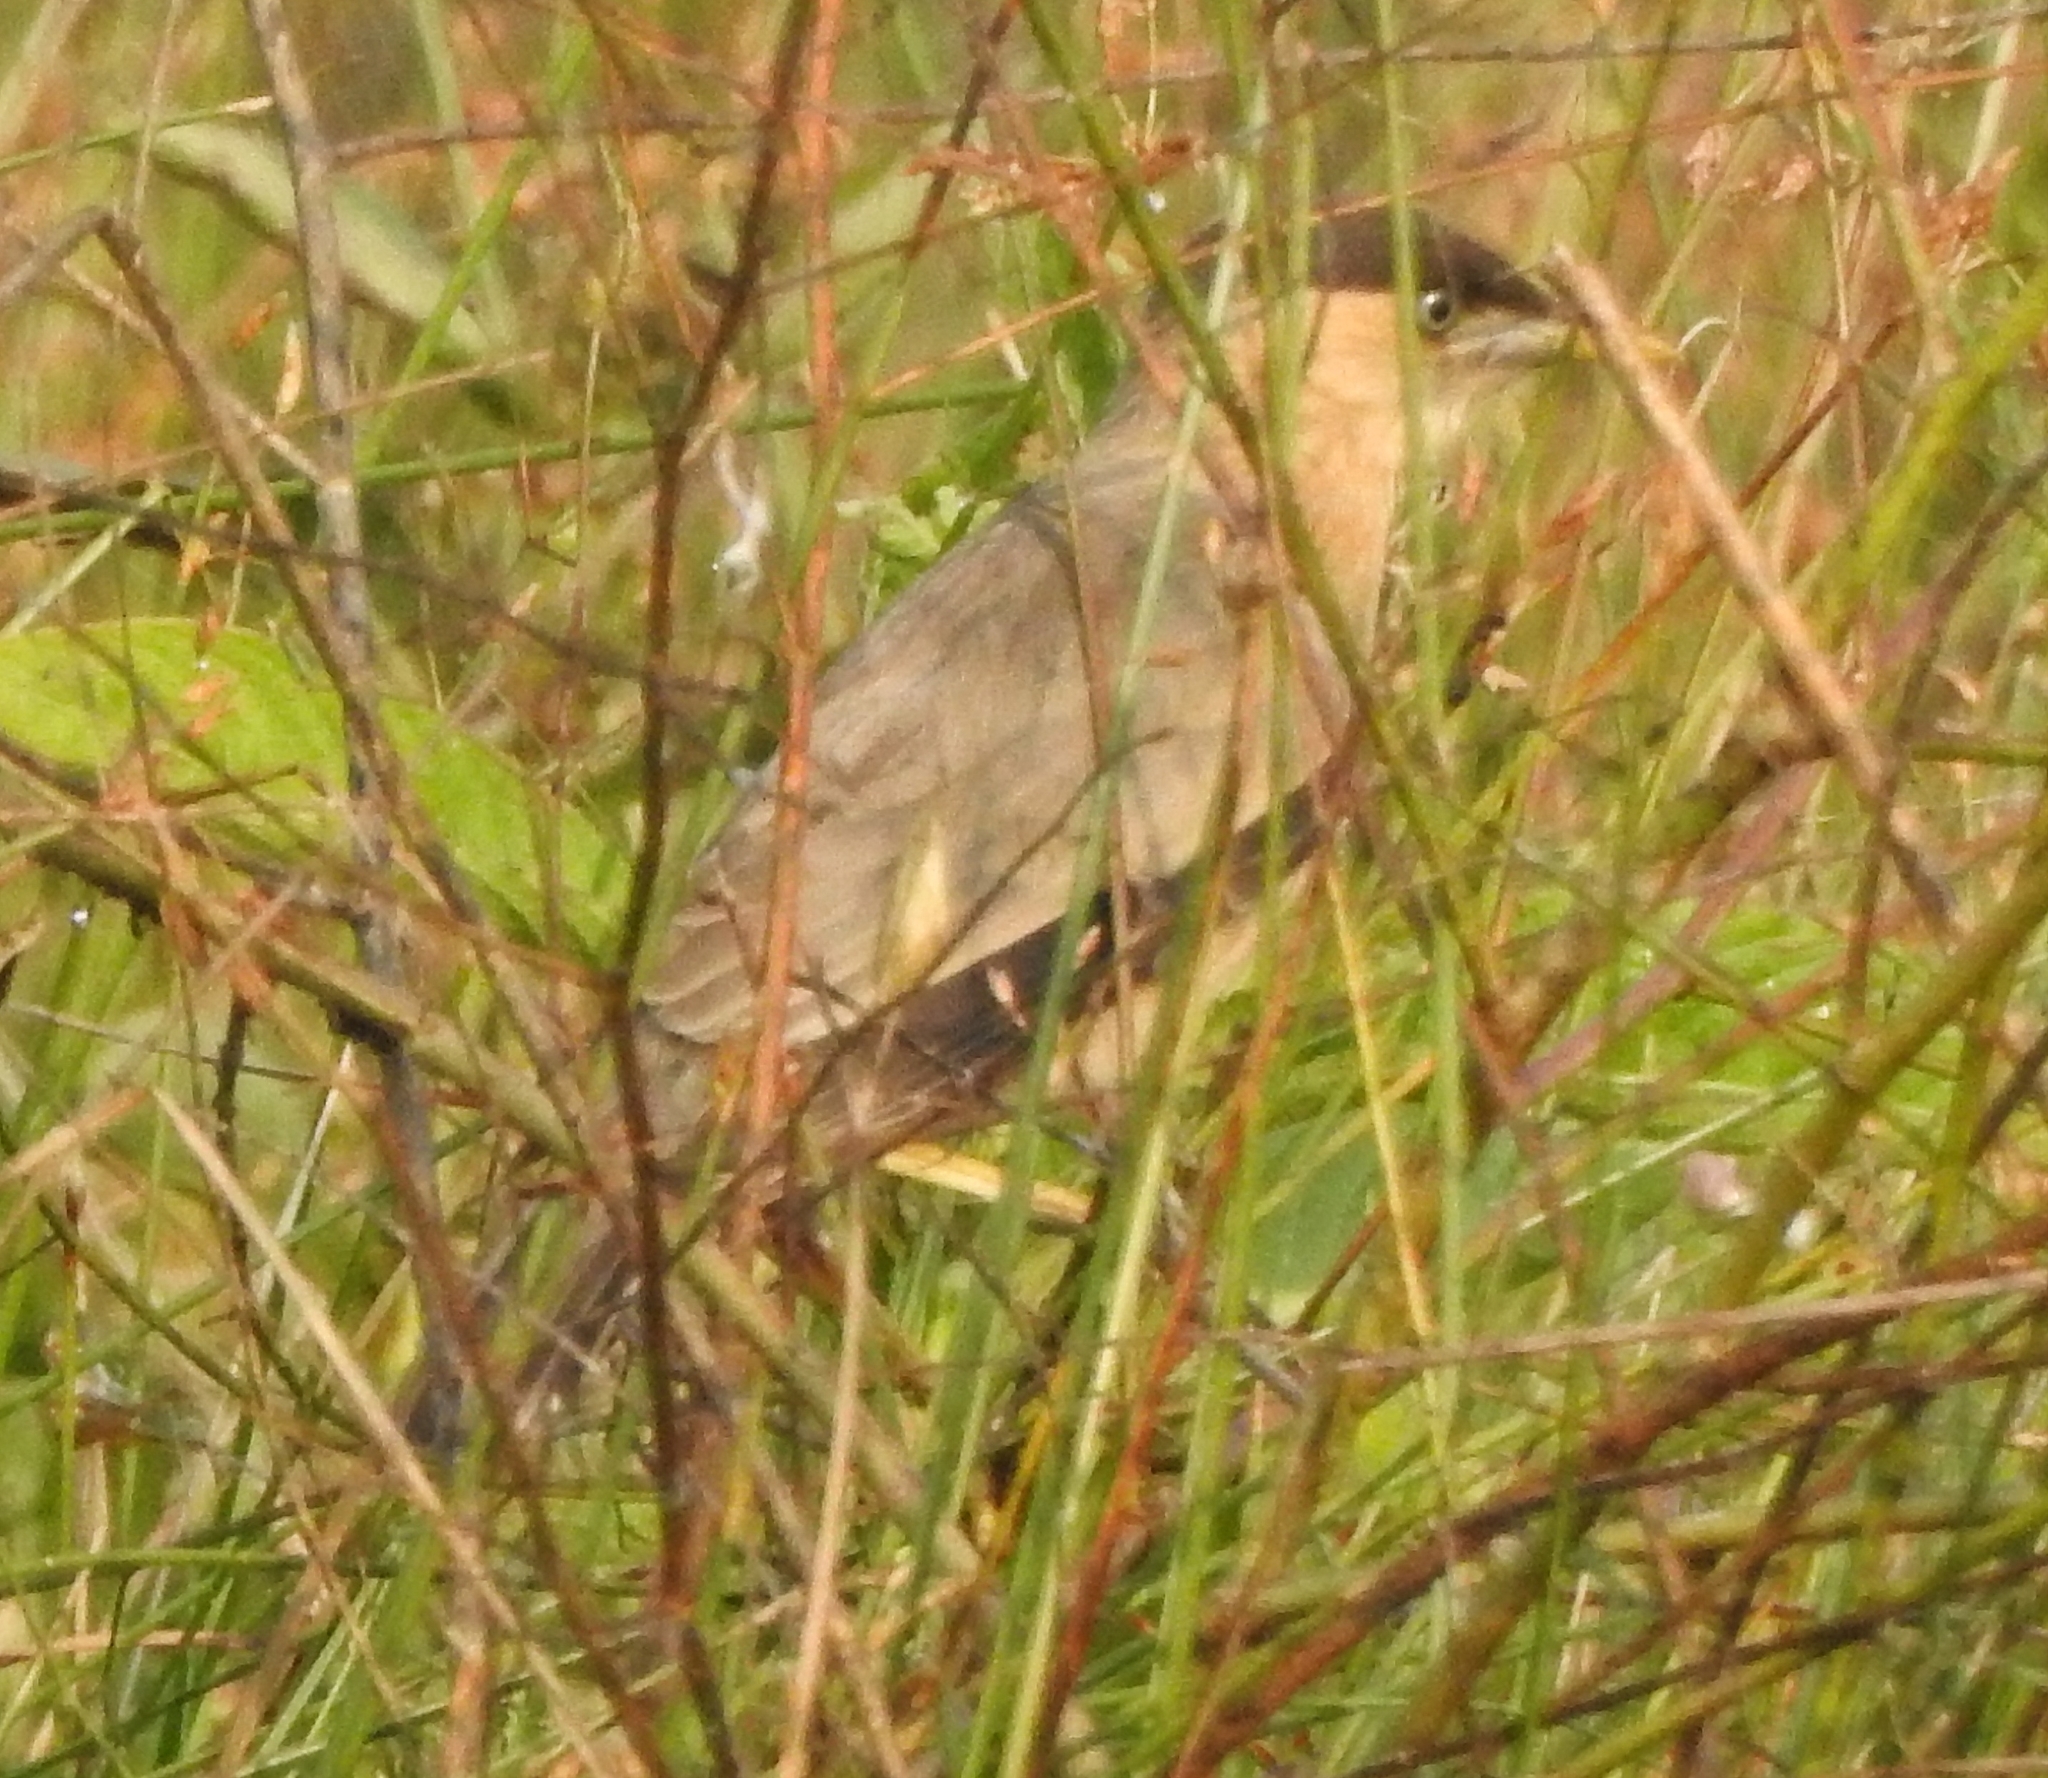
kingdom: Animalia
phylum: Chordata
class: Aves
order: Passeriformes
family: Sturnidae
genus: Sturnia
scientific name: Sturnia pagodarum
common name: Brahminy starling
